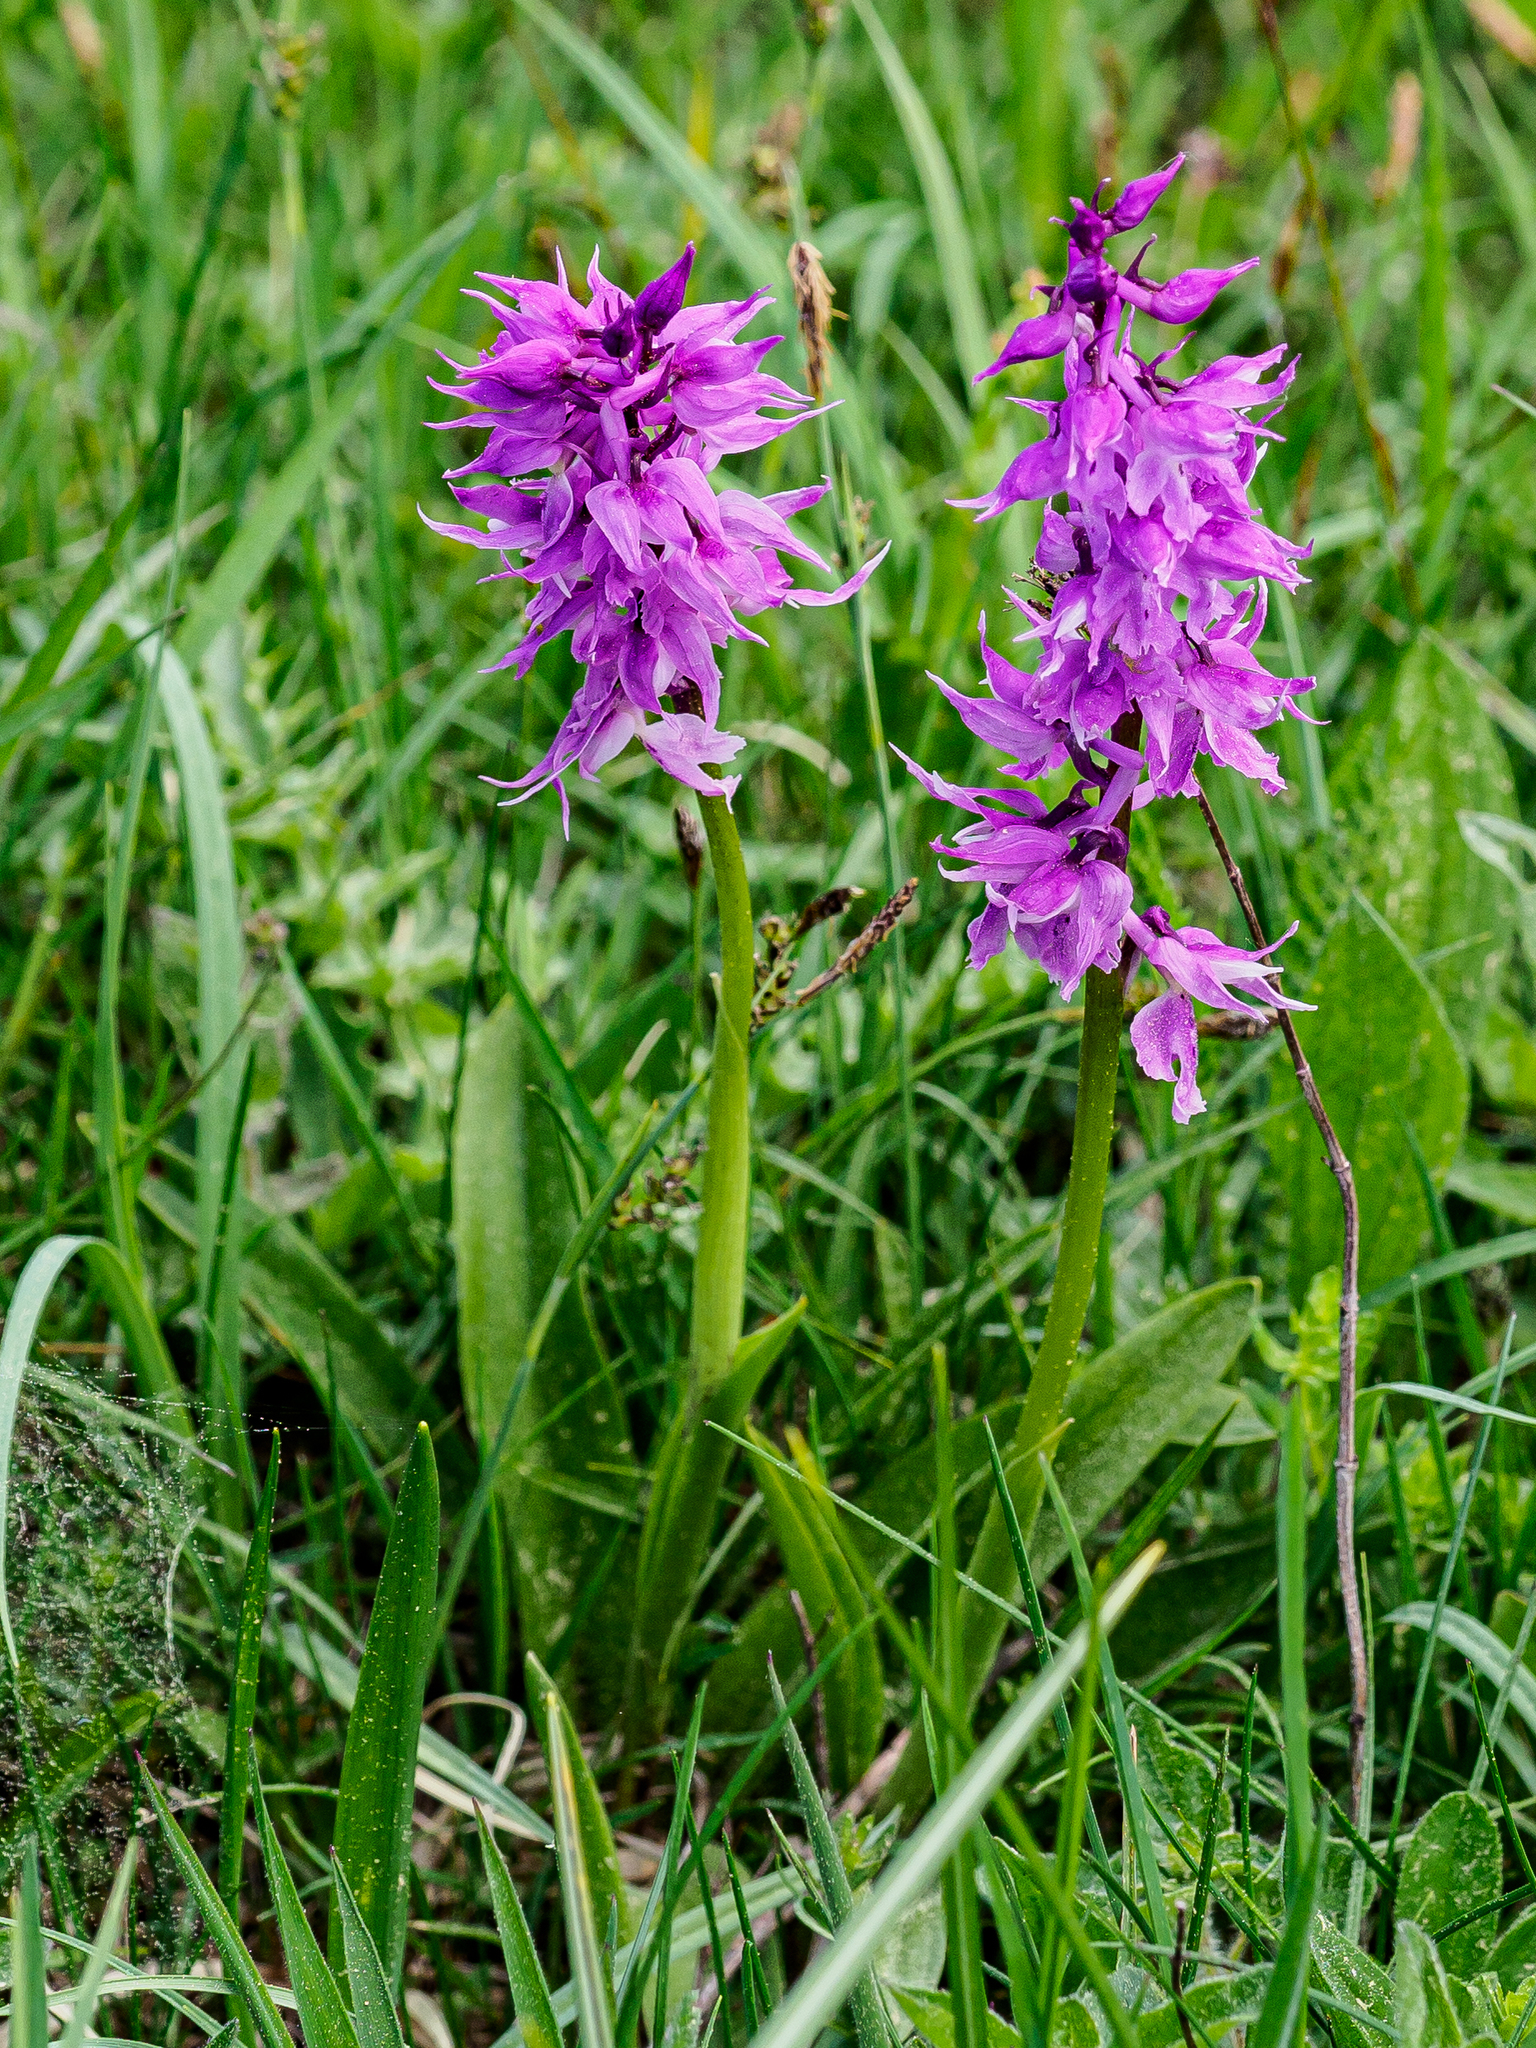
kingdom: Plantae
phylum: Tracheophyta
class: Liliopsida
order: Asparagales
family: Orchidaceae
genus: Orchis
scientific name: Orchis mascula
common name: Early-purple orchid
